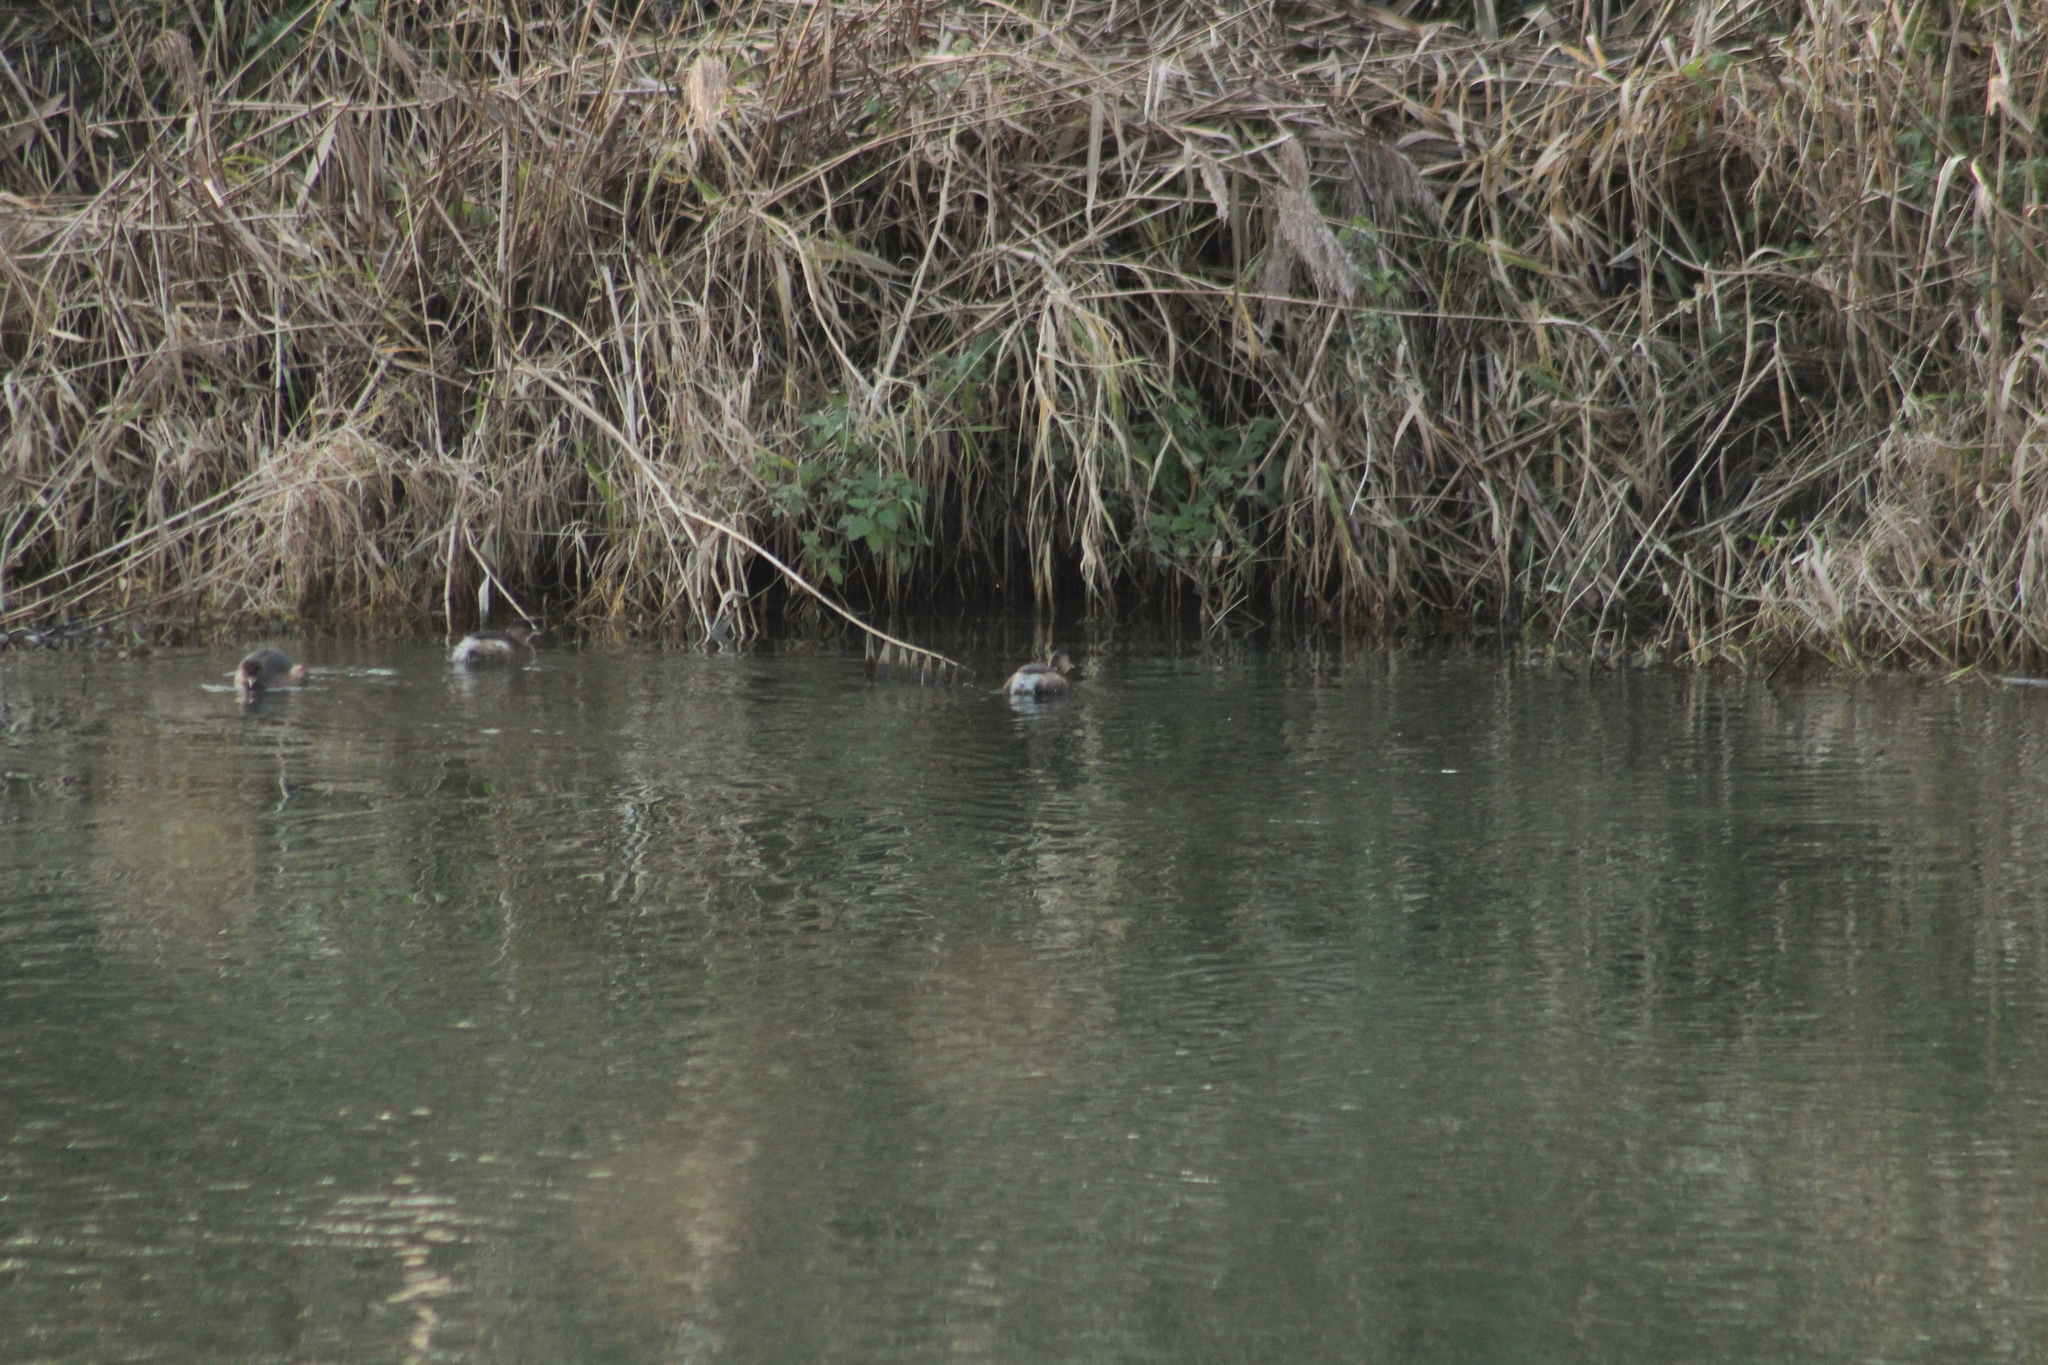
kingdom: Animalia
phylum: Chordata
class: Aves
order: Podicipediformes
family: Podicipedidae
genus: Tachybaptus
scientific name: Tachybaptus ruficollis
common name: Little grebe
